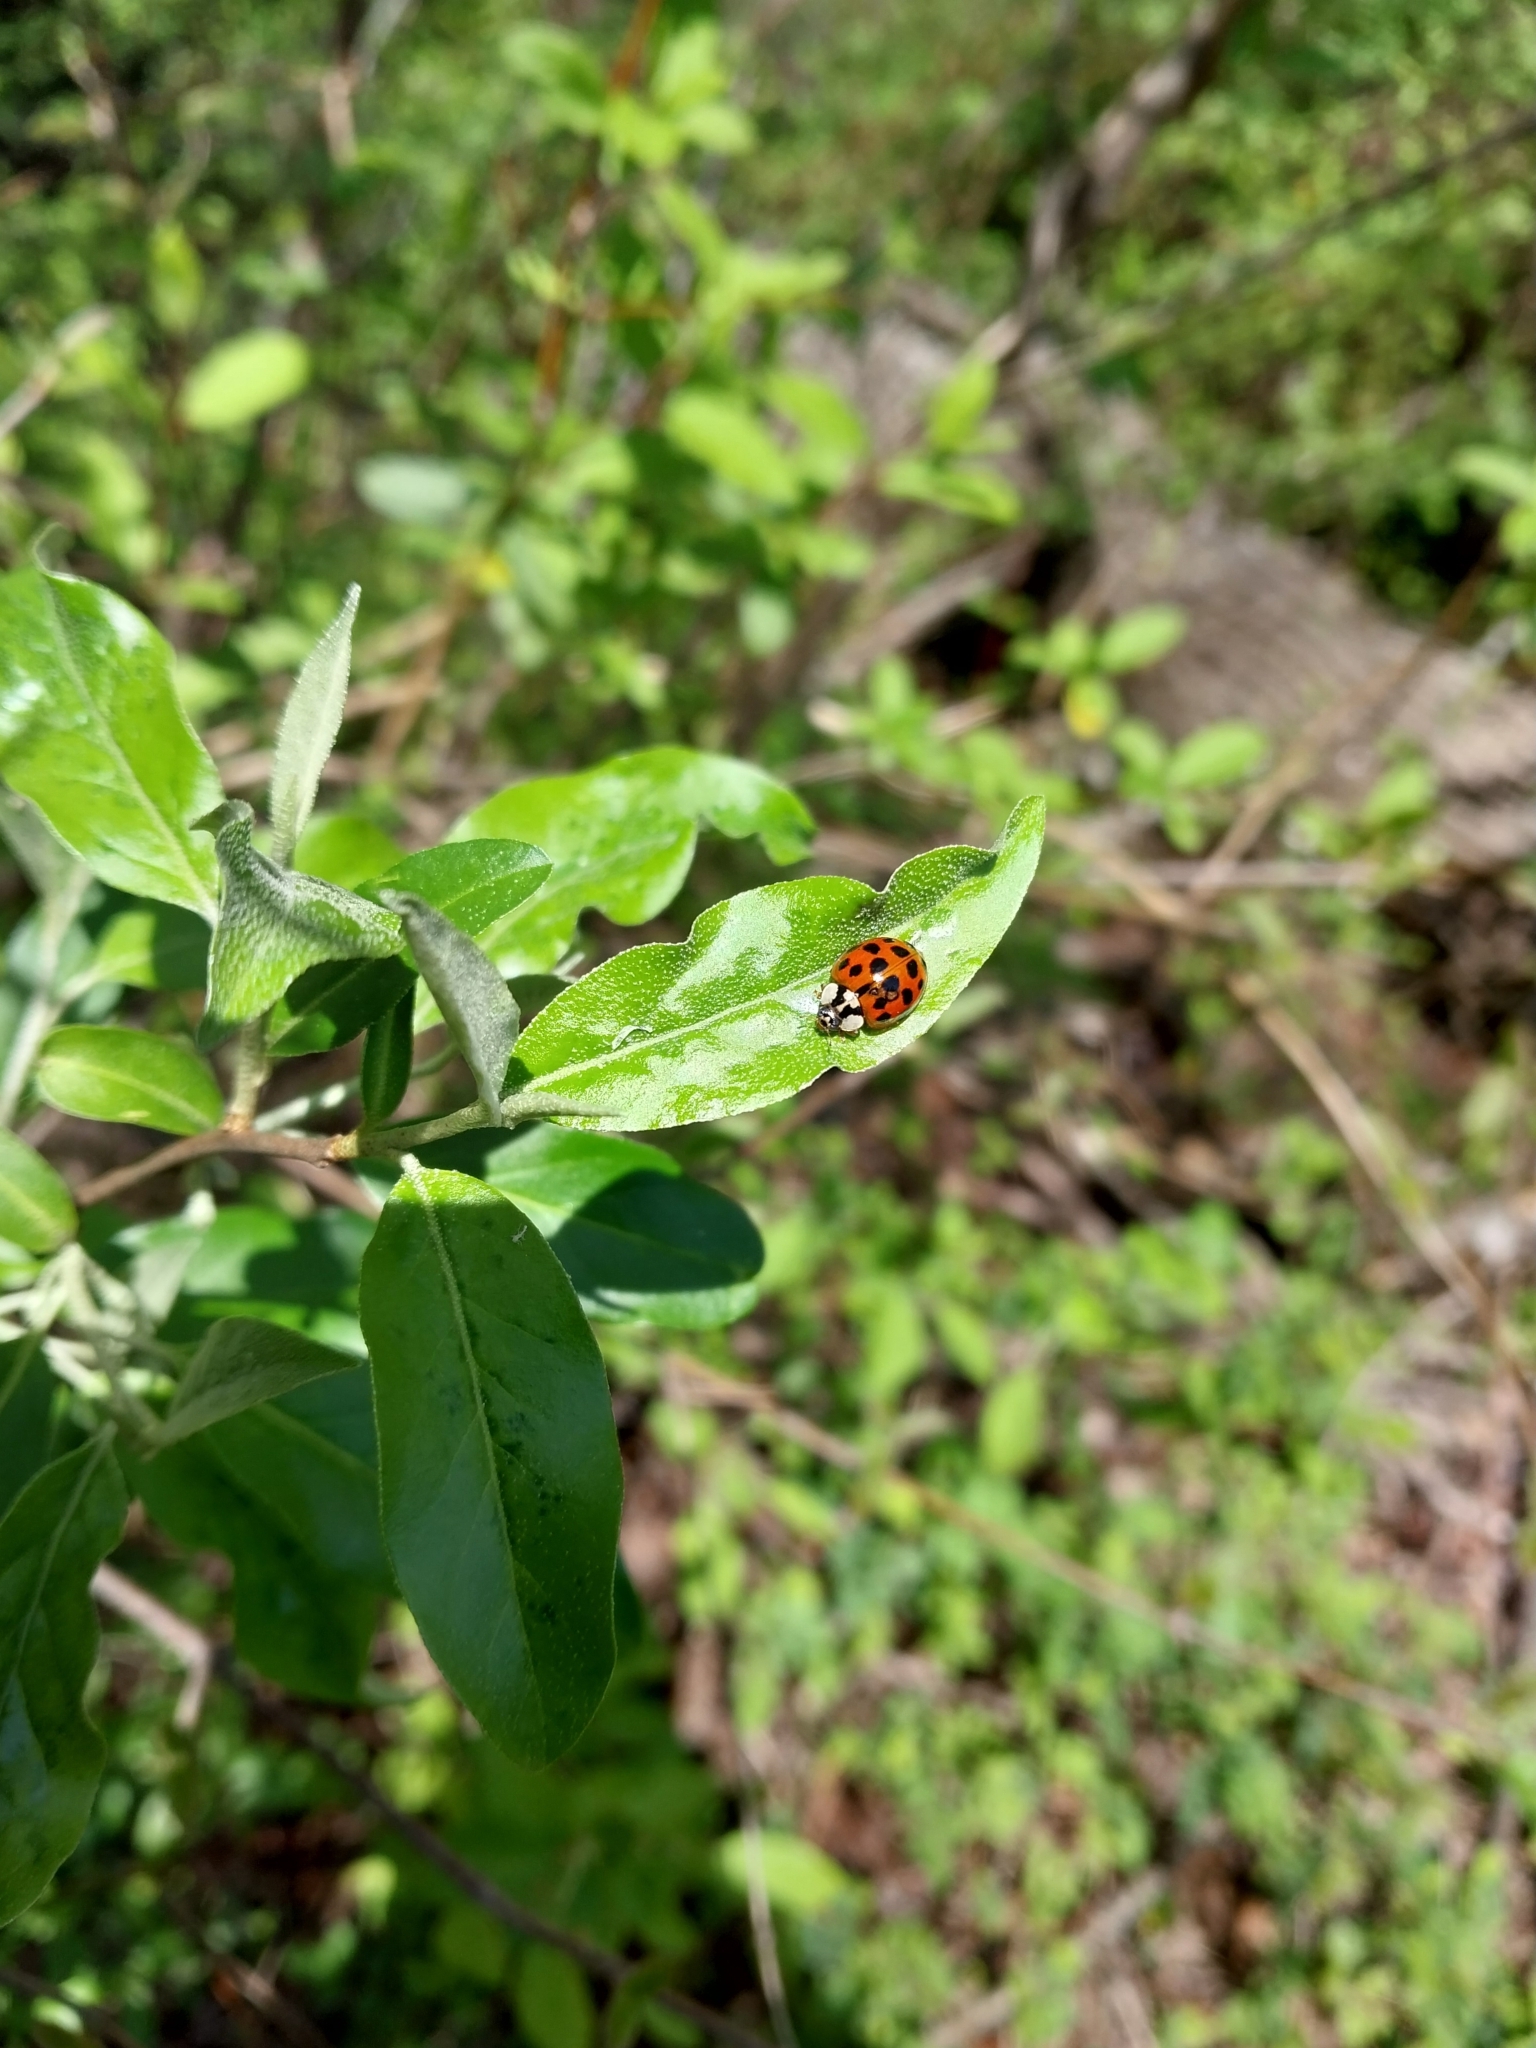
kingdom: Animalia
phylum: Arthropoda
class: Insecta
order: Coleoptera
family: Coccinellidae
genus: Harmonia
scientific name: Harmonia axyridis
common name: Harlequin ladybird
